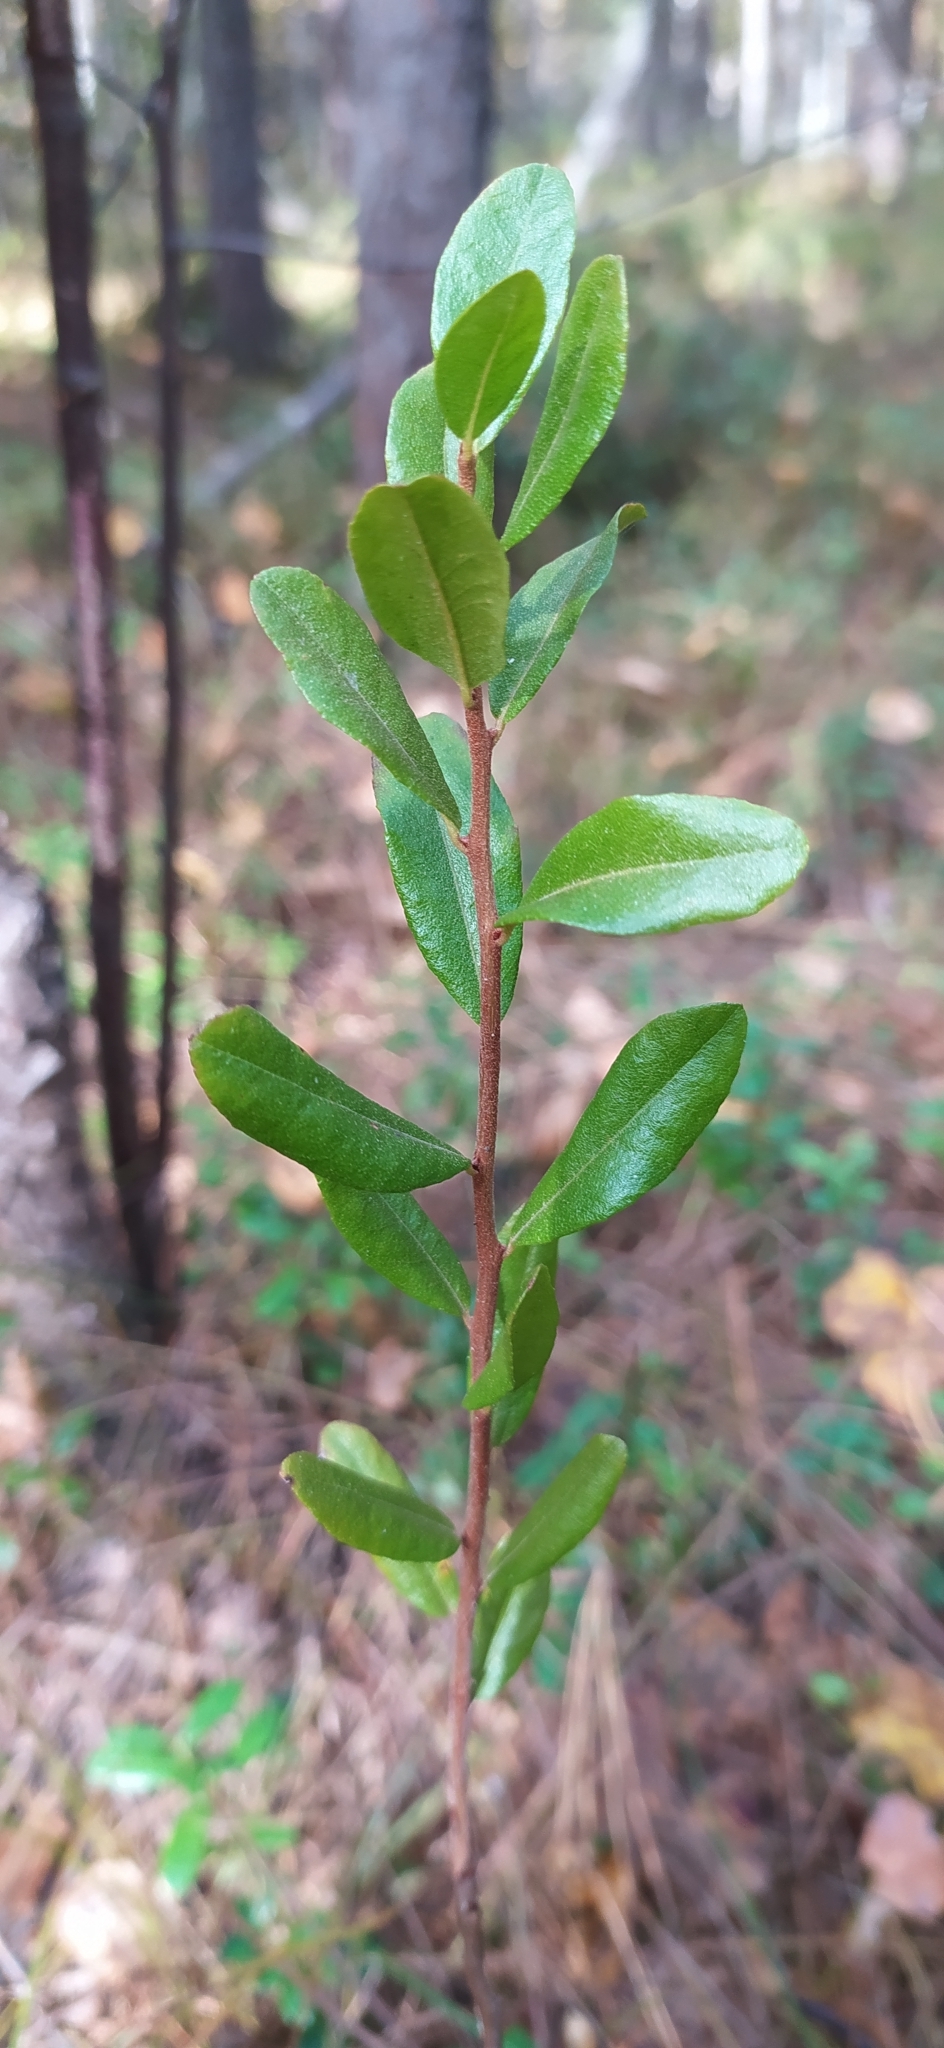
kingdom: Plantae
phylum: Tracheophyta
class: Magnoliopsida
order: Ericales
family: Ericaceae
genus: Chamaedaphne
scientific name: Chamaedaphne calyculata
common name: Leatherleaf
